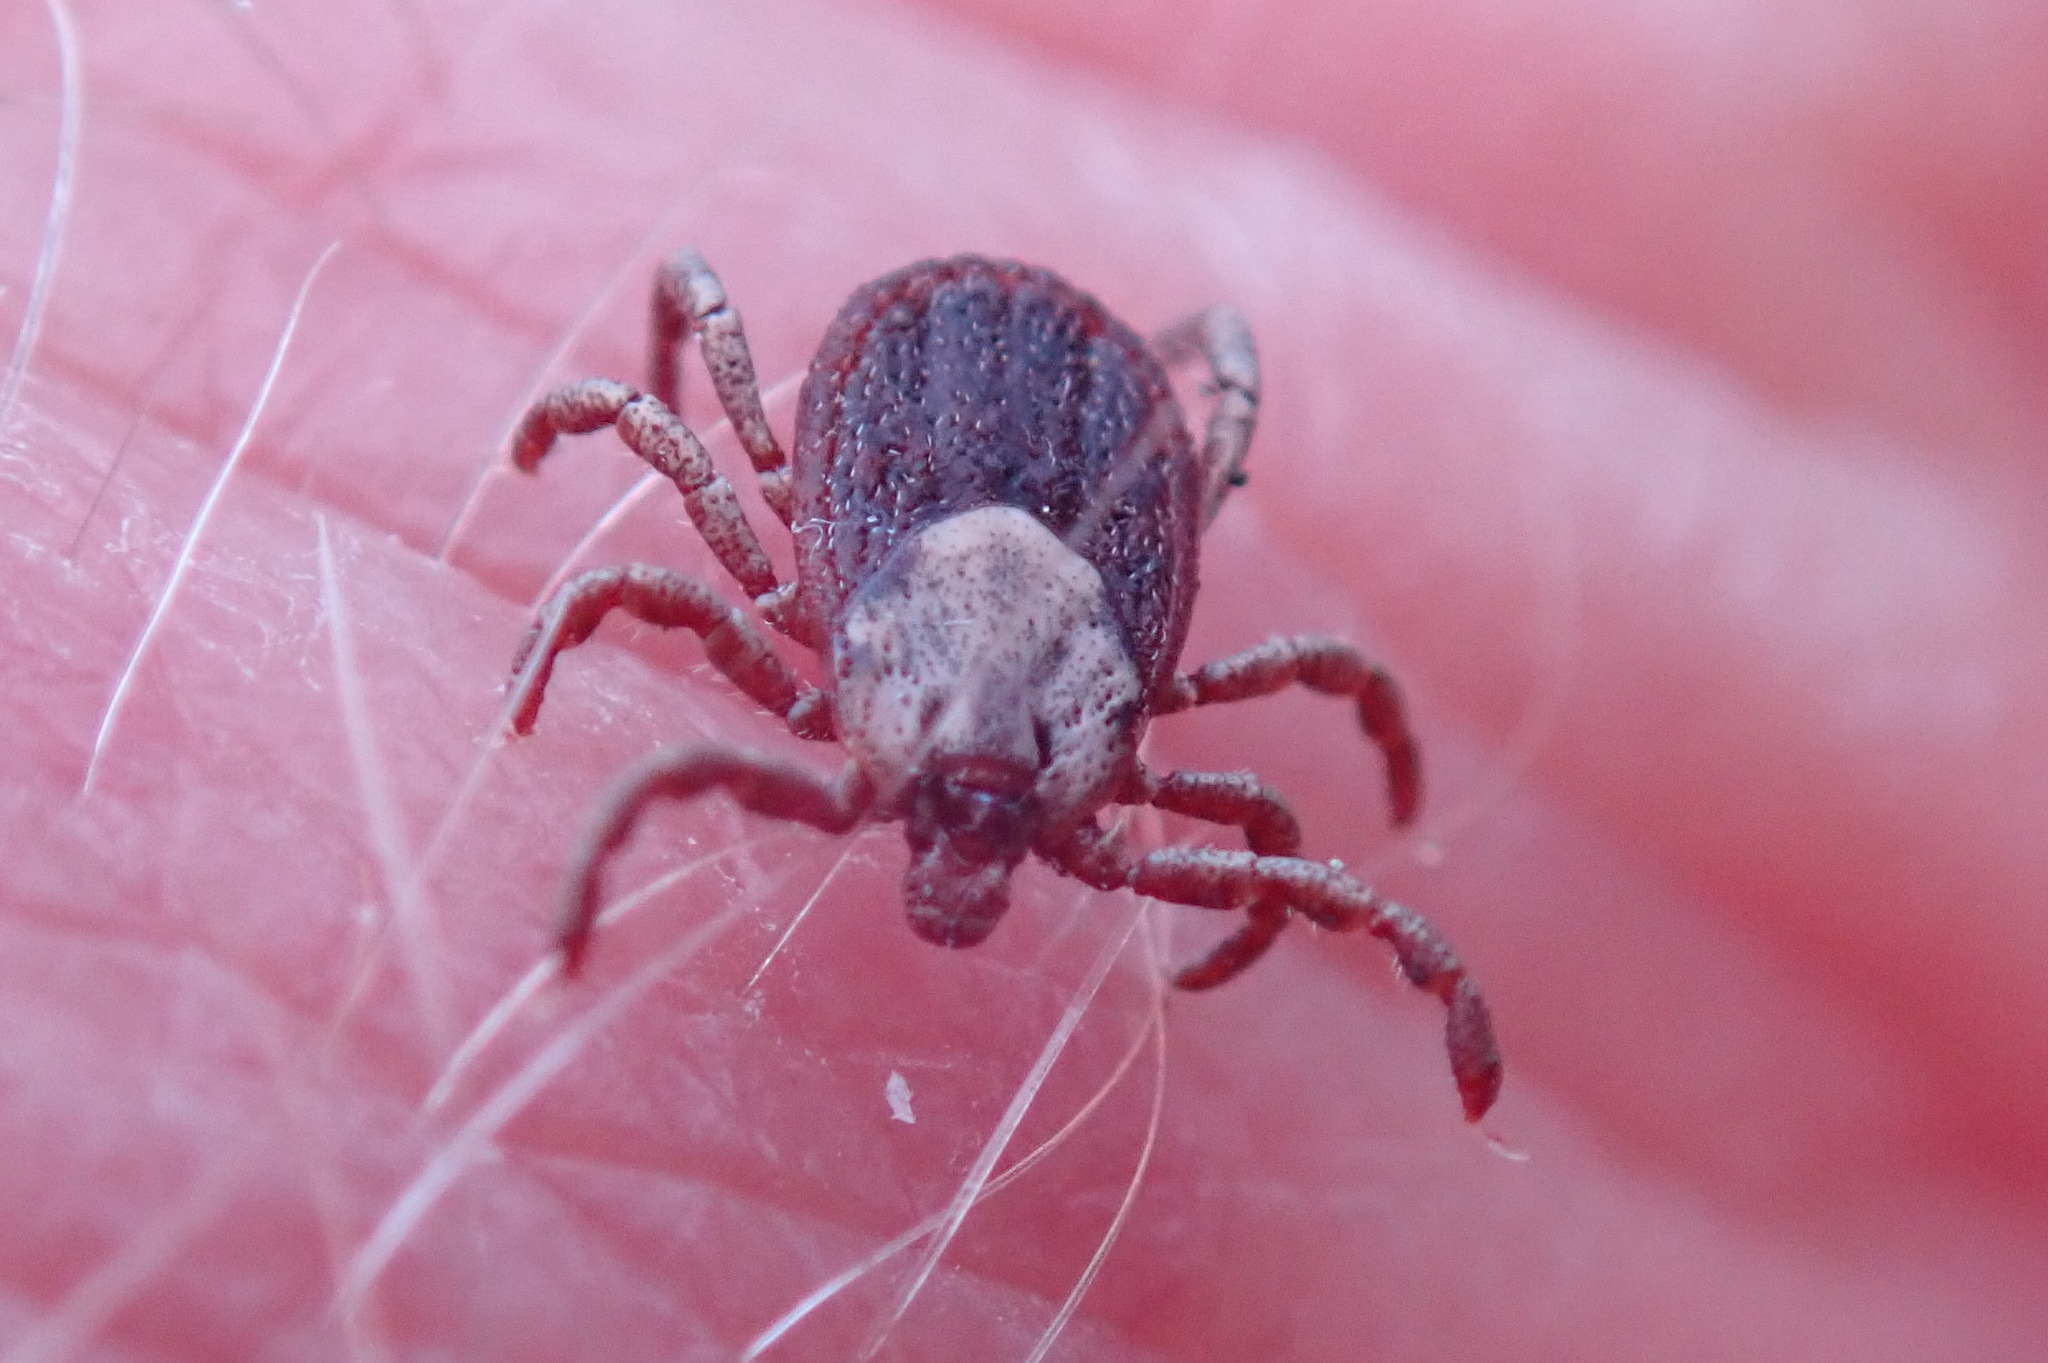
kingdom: Animalia
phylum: Arthropoda
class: Arachnida
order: Ixodida
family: Ixodidae
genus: Dermacentor
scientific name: Dermacentor variabilis
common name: American dog tick
